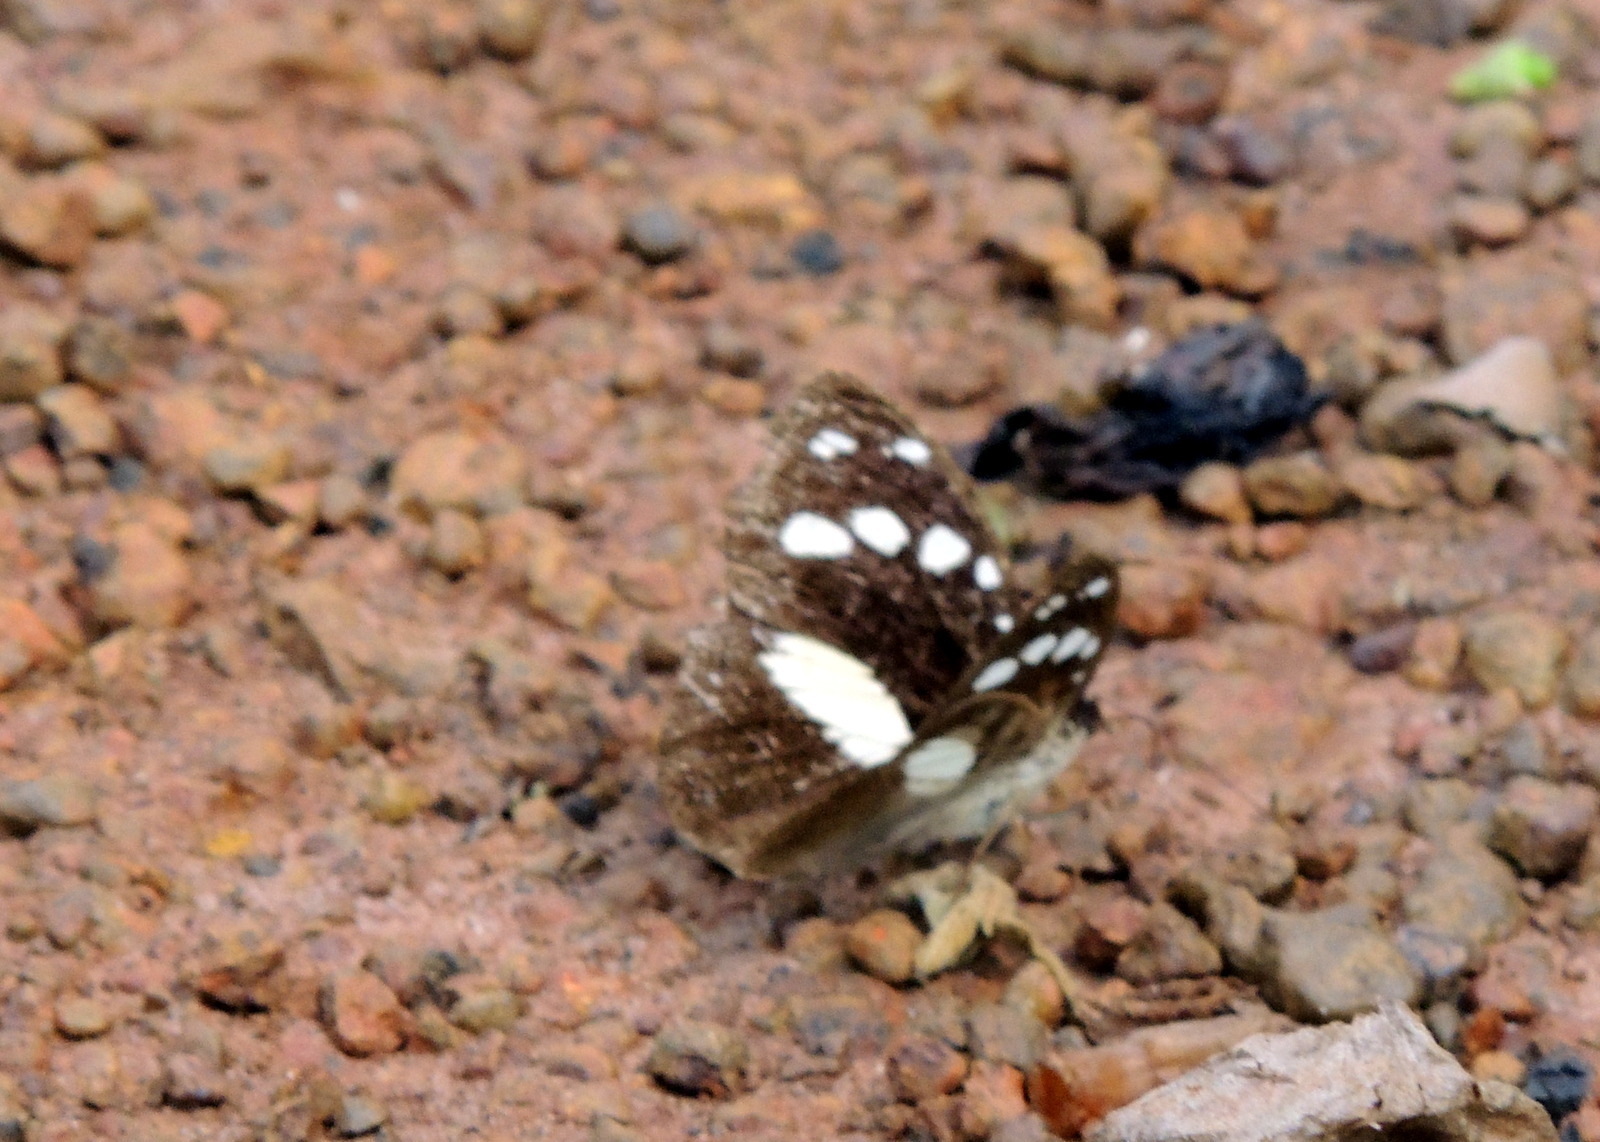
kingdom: Animalia
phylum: Arthropoda
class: Insecta
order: Lepidoptera
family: Nymphalidae
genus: Aterica
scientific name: Aterica galene
